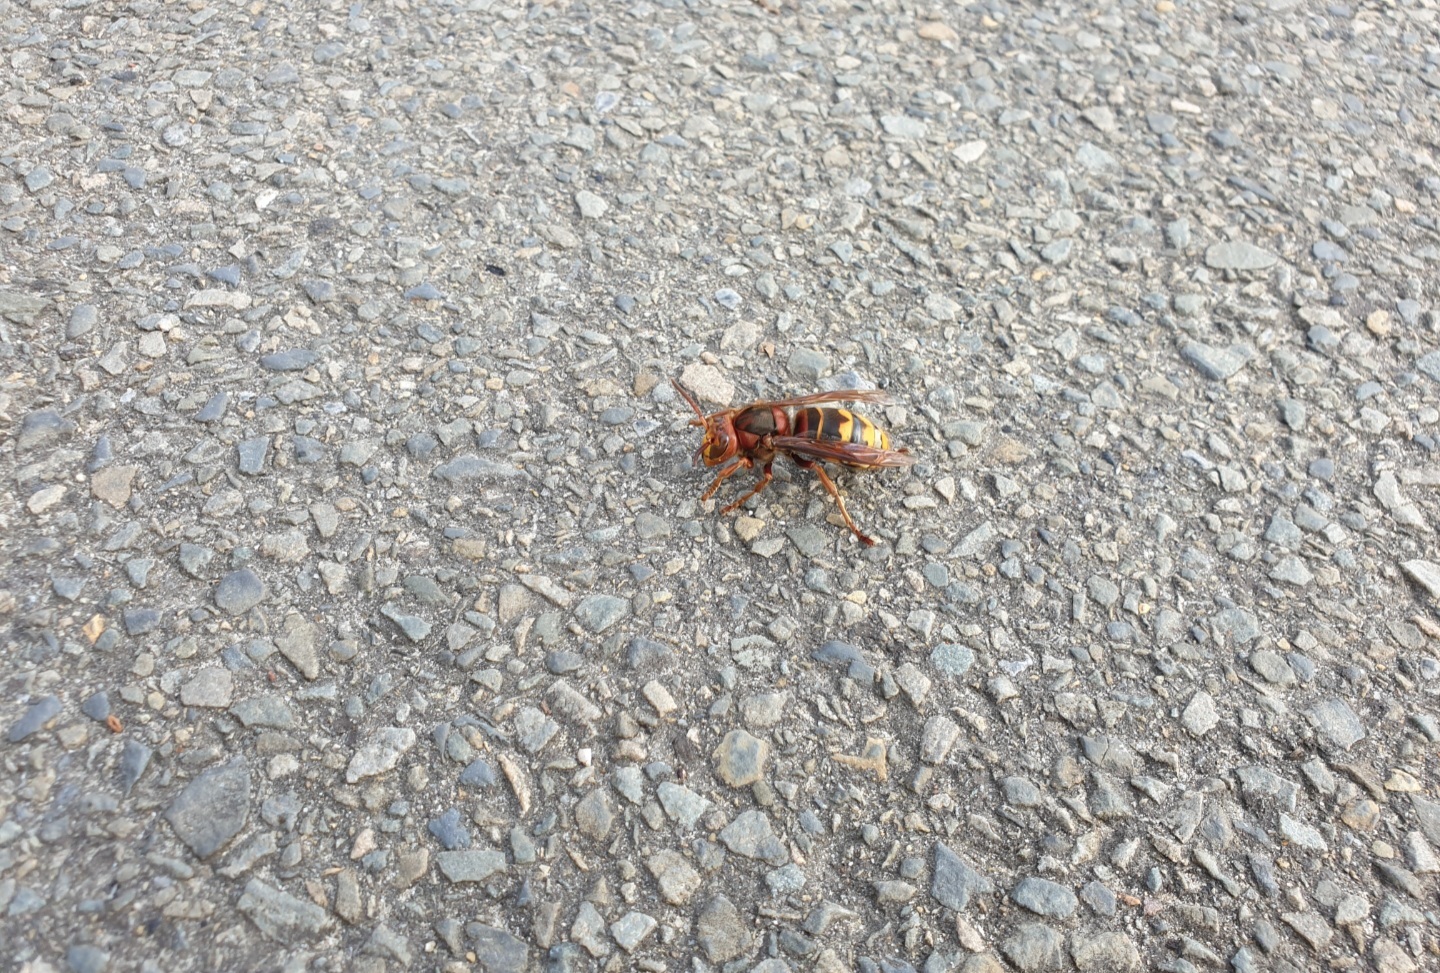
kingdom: Animalia
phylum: Arthropoda
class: Insecta
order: Hymenoptera
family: Vespidae
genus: Vespa
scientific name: Vespa crabro
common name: Hornet
